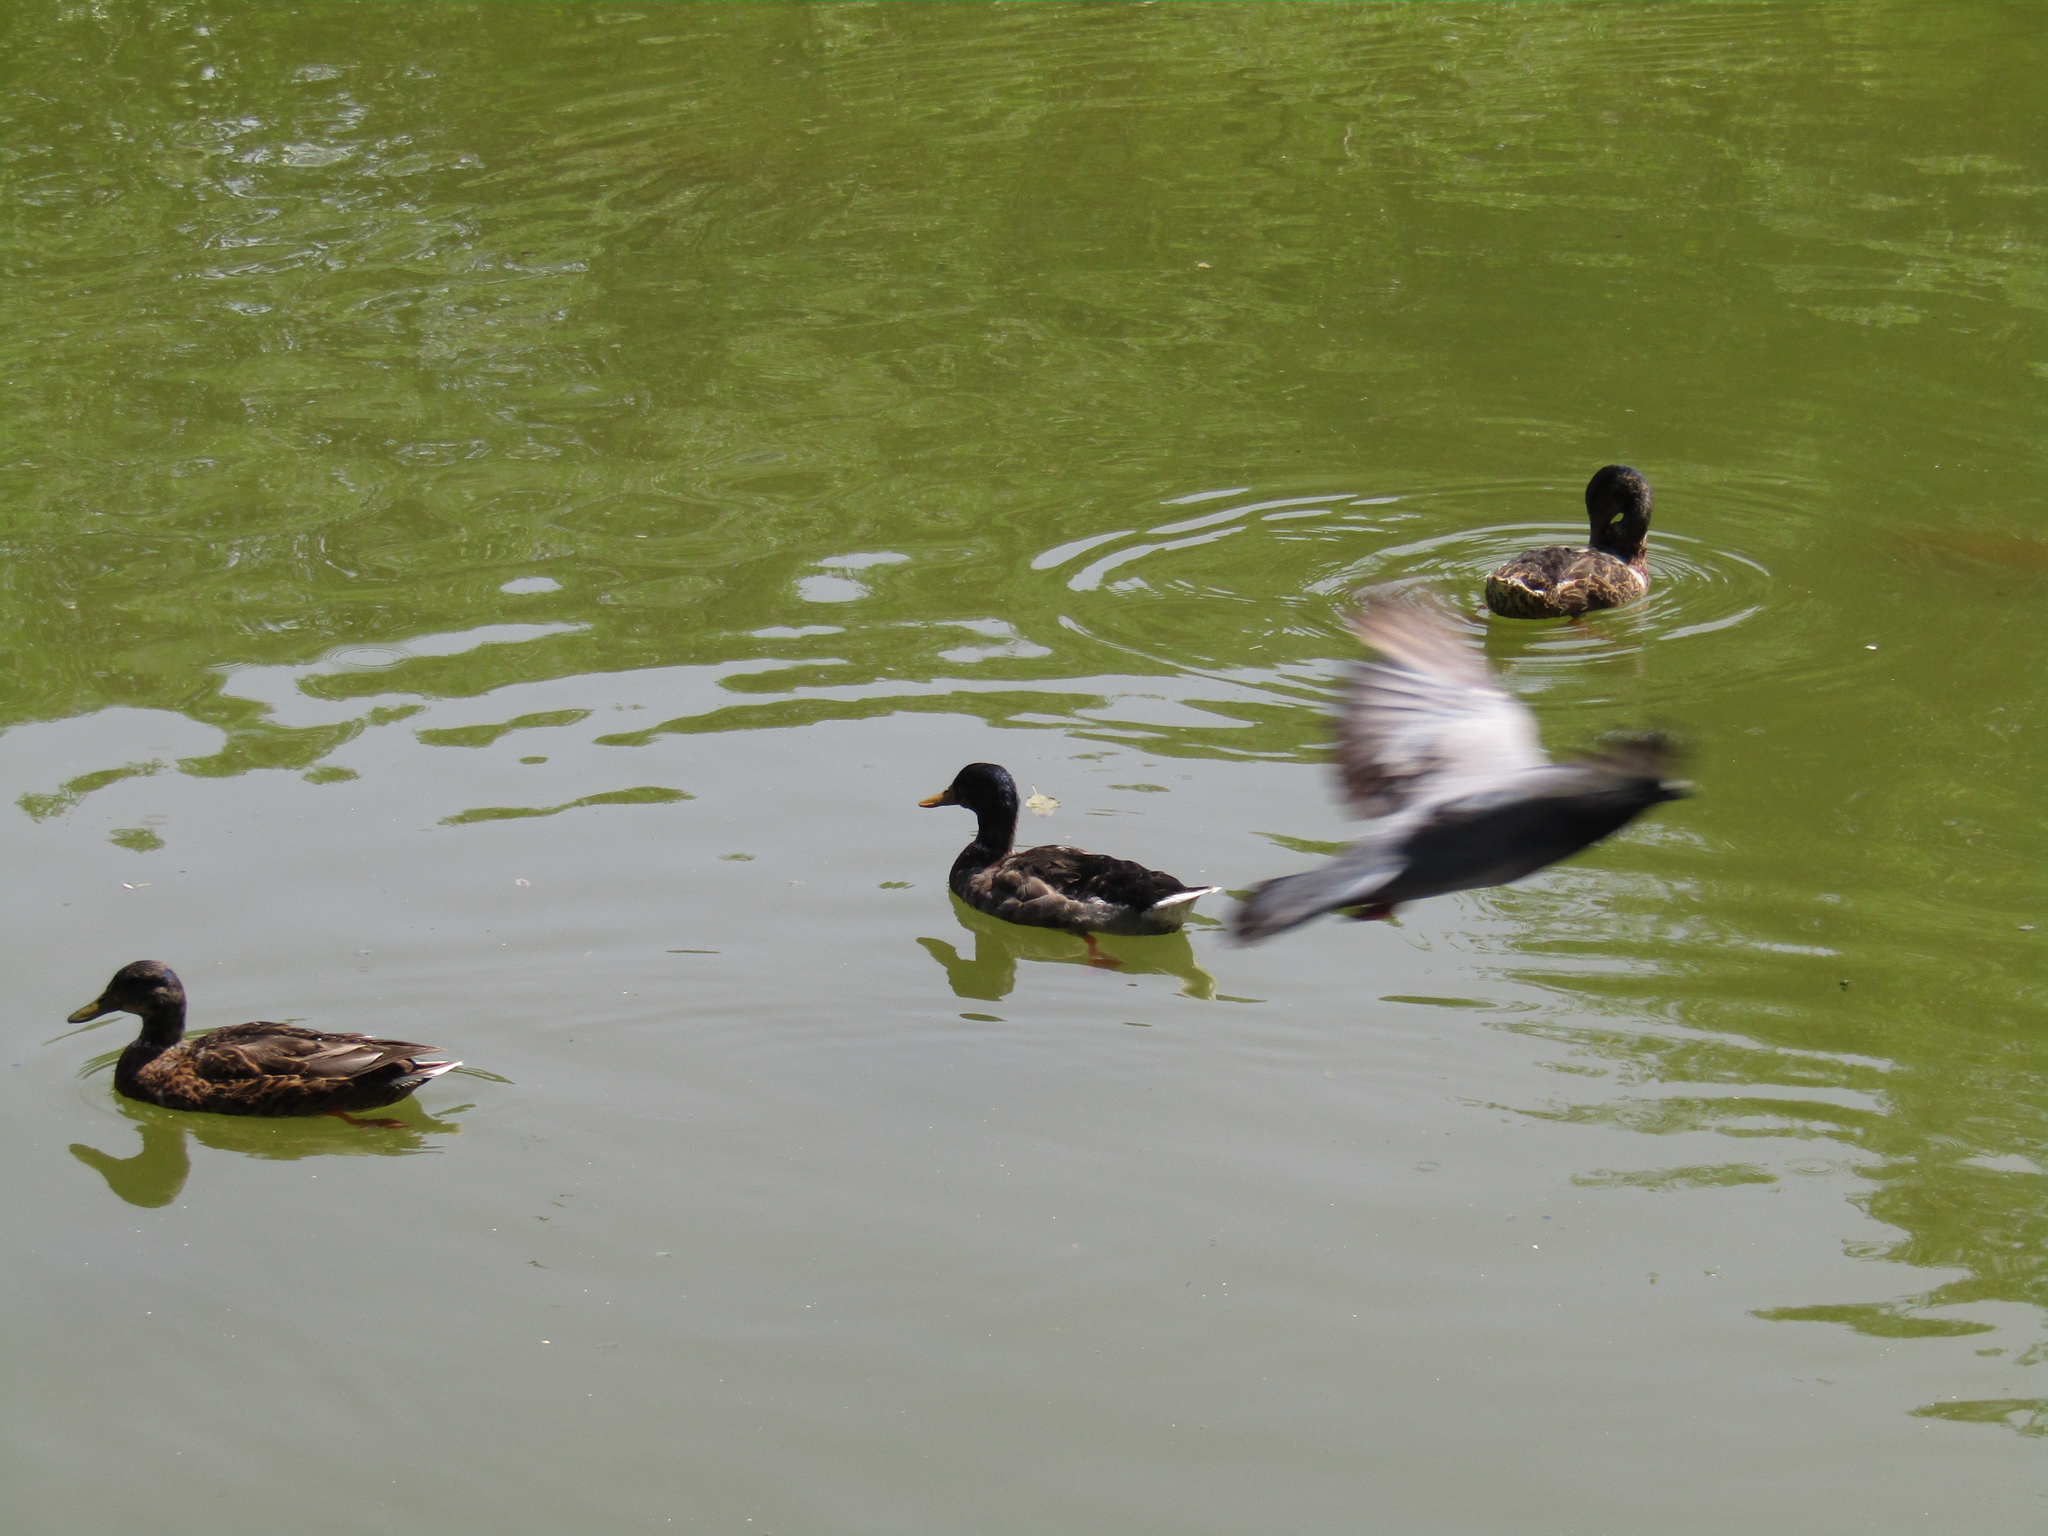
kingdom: Animalia
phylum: Chordata
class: Aves
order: Anseriformes
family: Anatidae
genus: Anas
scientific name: Anas platyrhynchos
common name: Mallard
